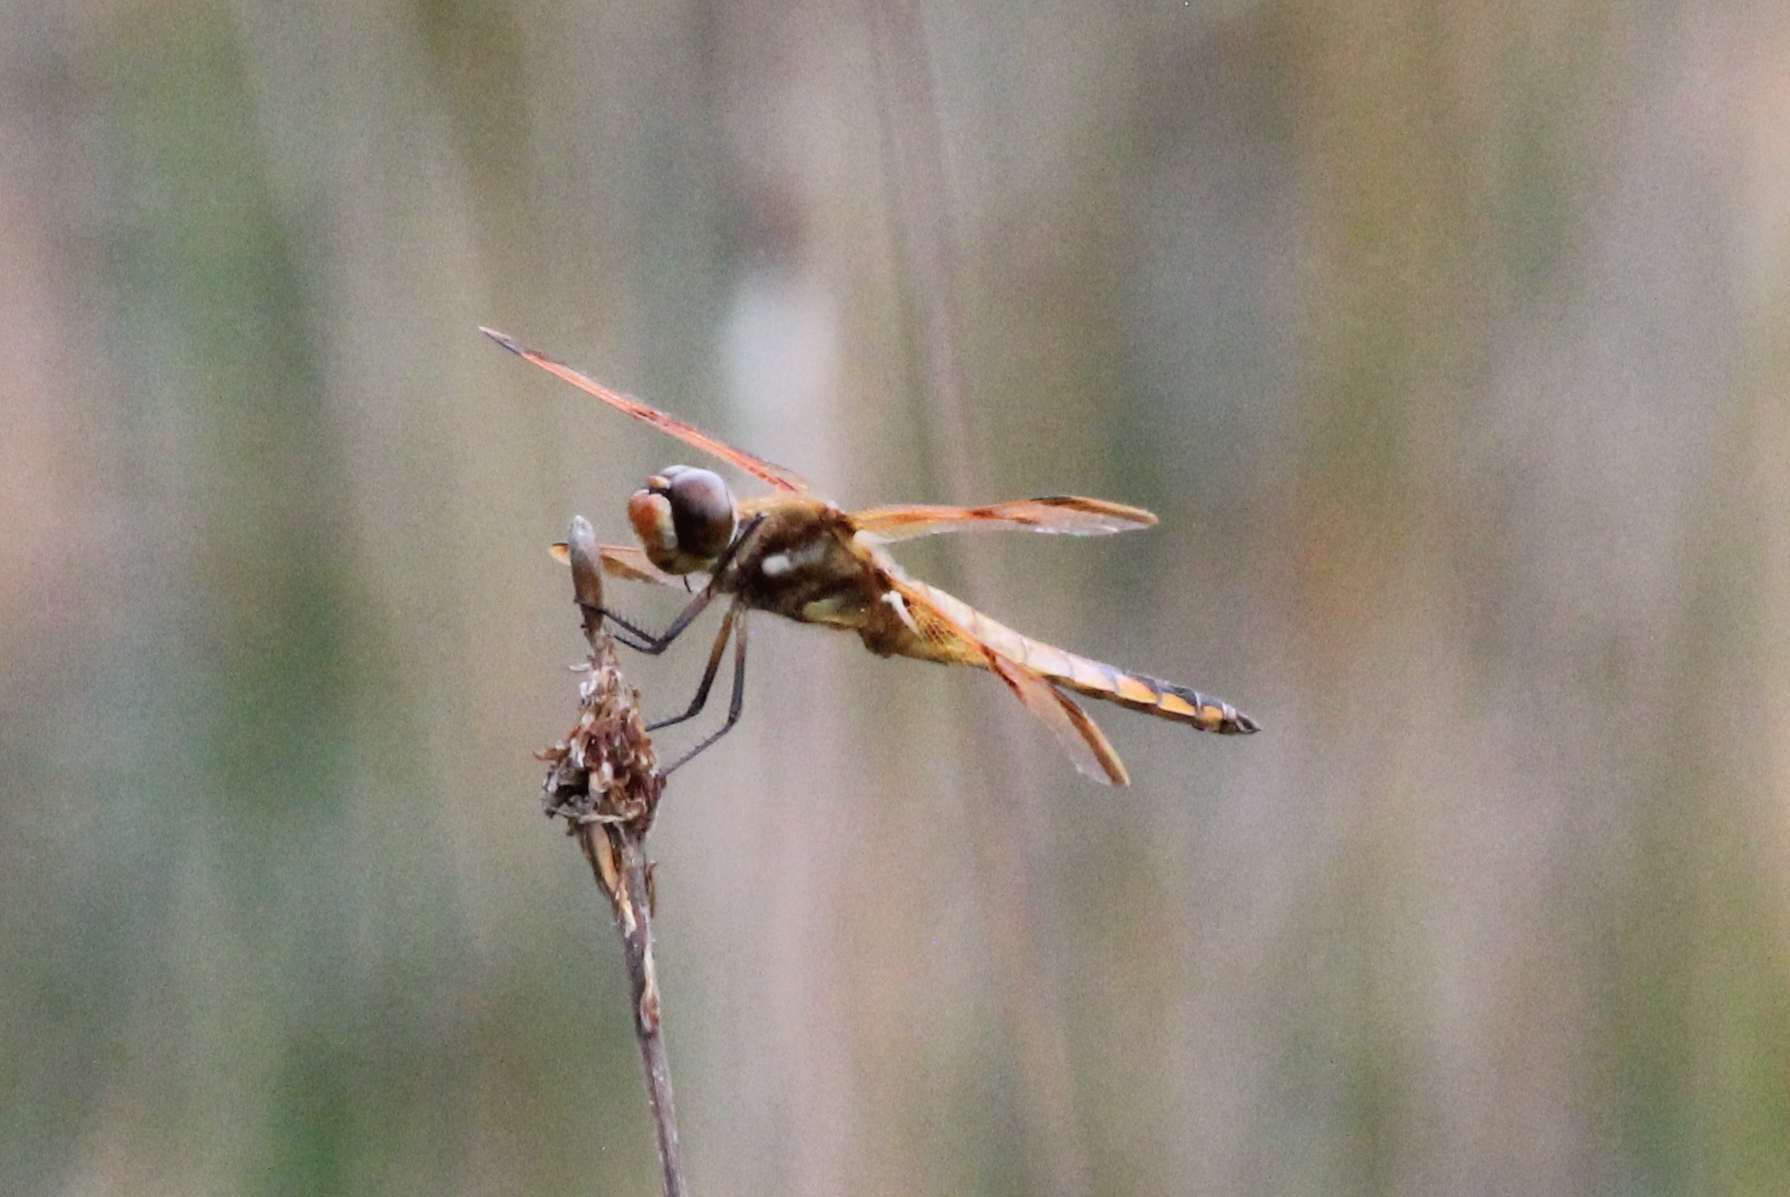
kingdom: Animalia
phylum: Arthropoda
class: Insecta
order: Odonata
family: Libellulidae
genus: Libellula
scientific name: Libellula semifasciata
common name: Painted skimmer
